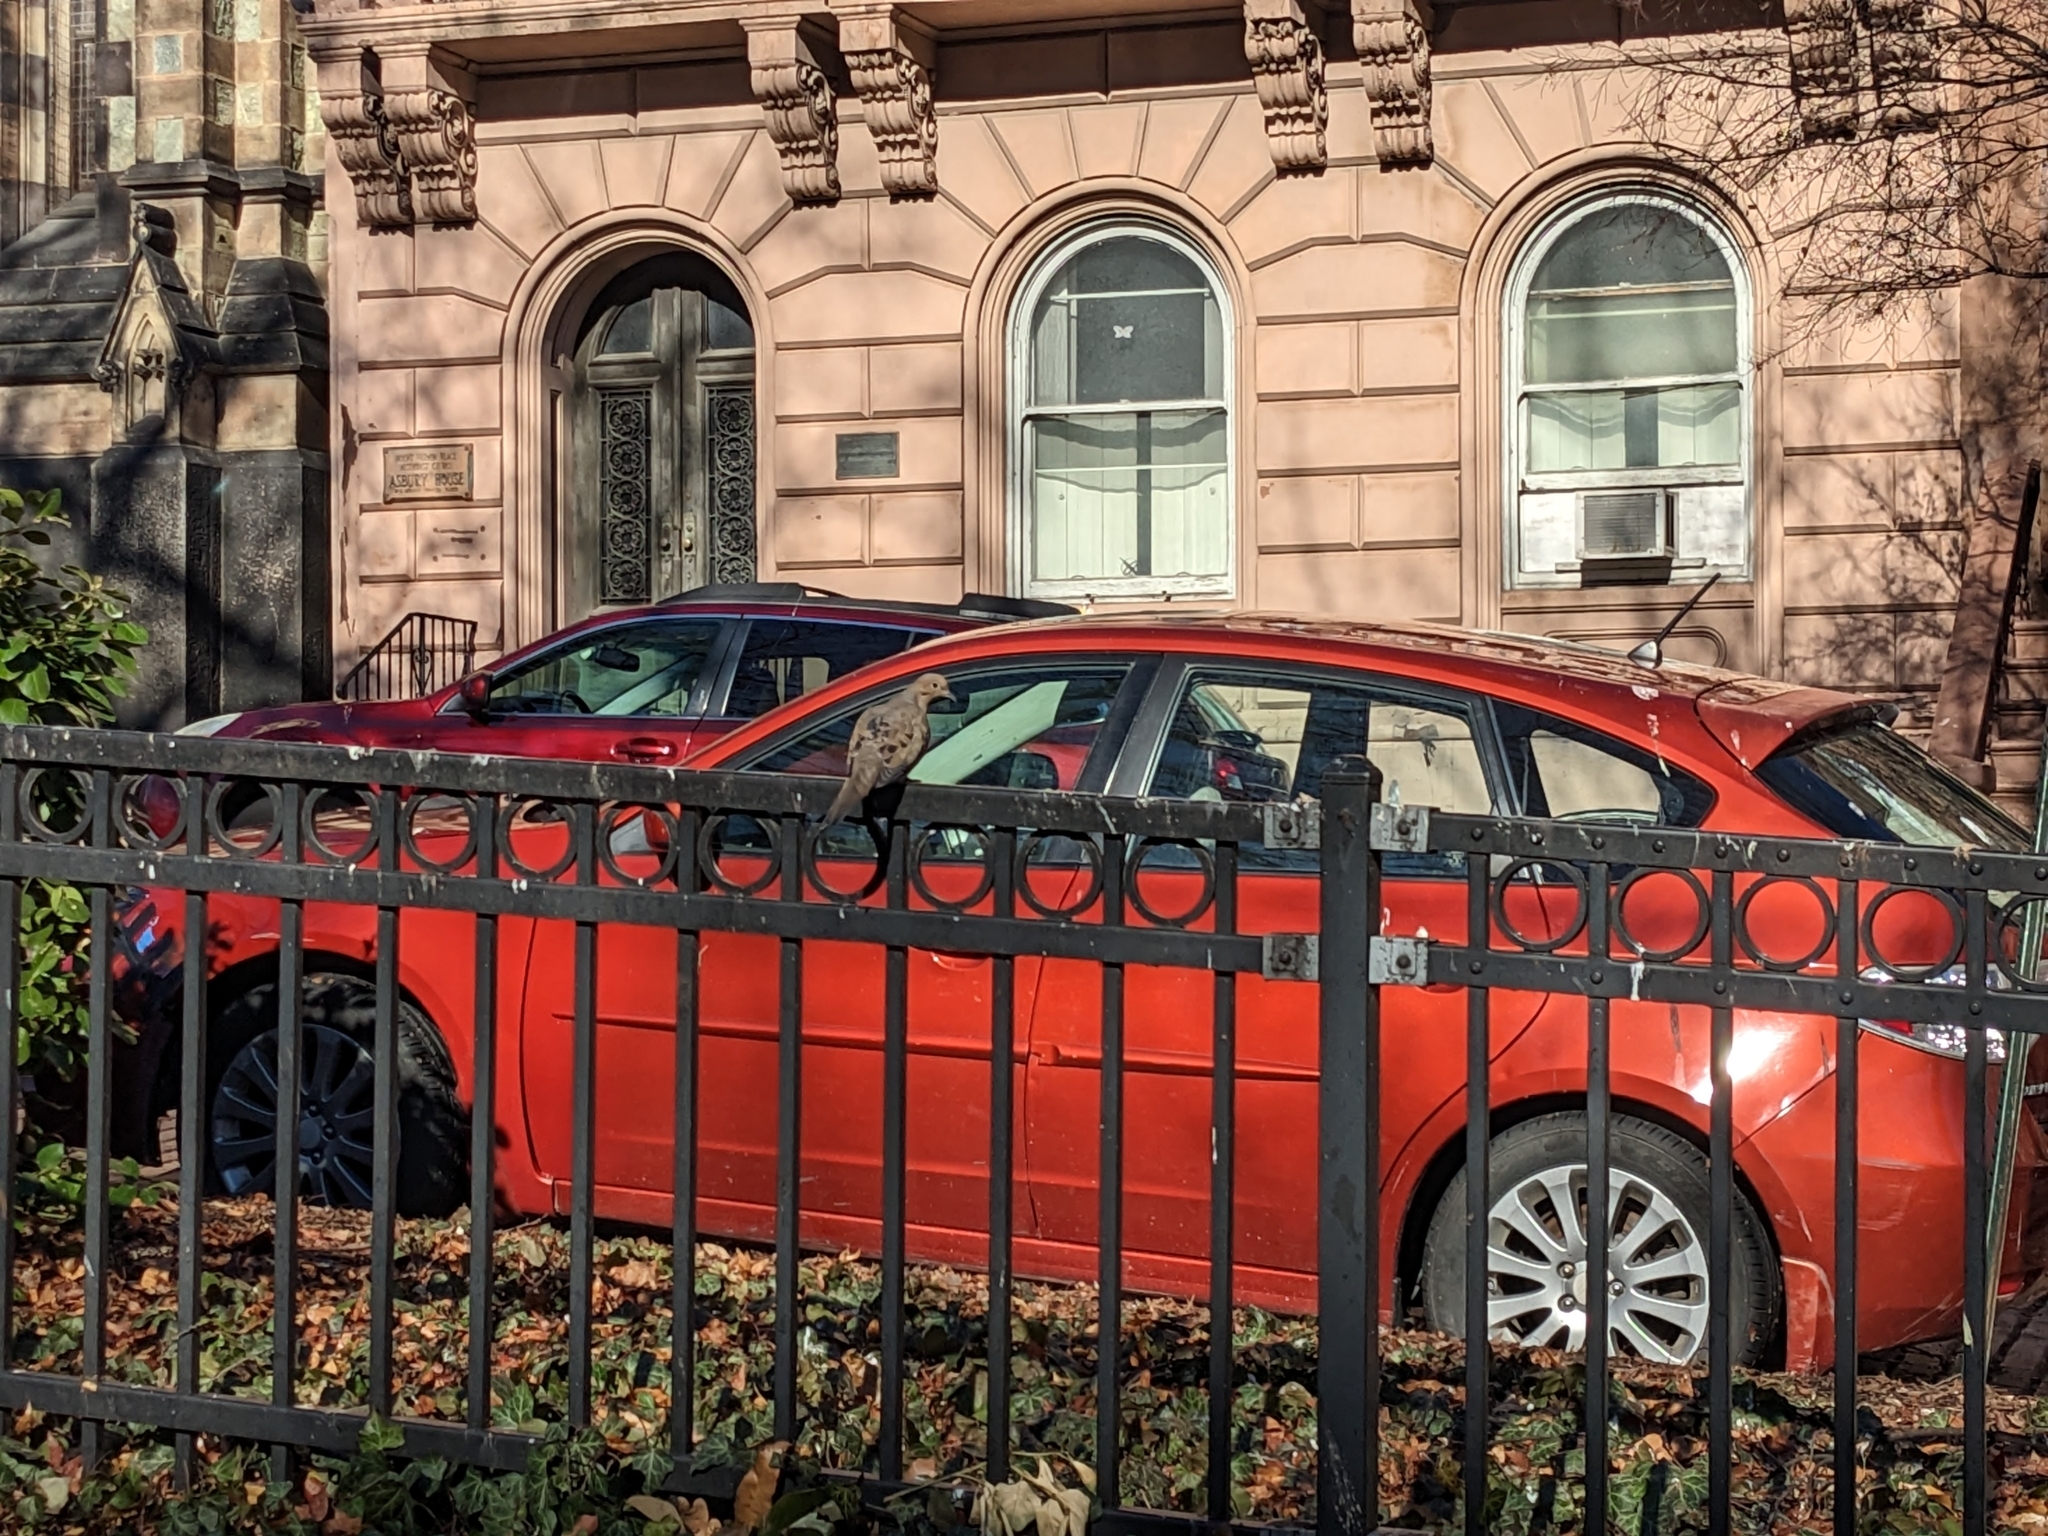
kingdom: Animalia
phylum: Chordata
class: Aves
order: Columbiformes
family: Columbidae
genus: Zenaida
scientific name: Zenaida macroura
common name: Mourning dove
